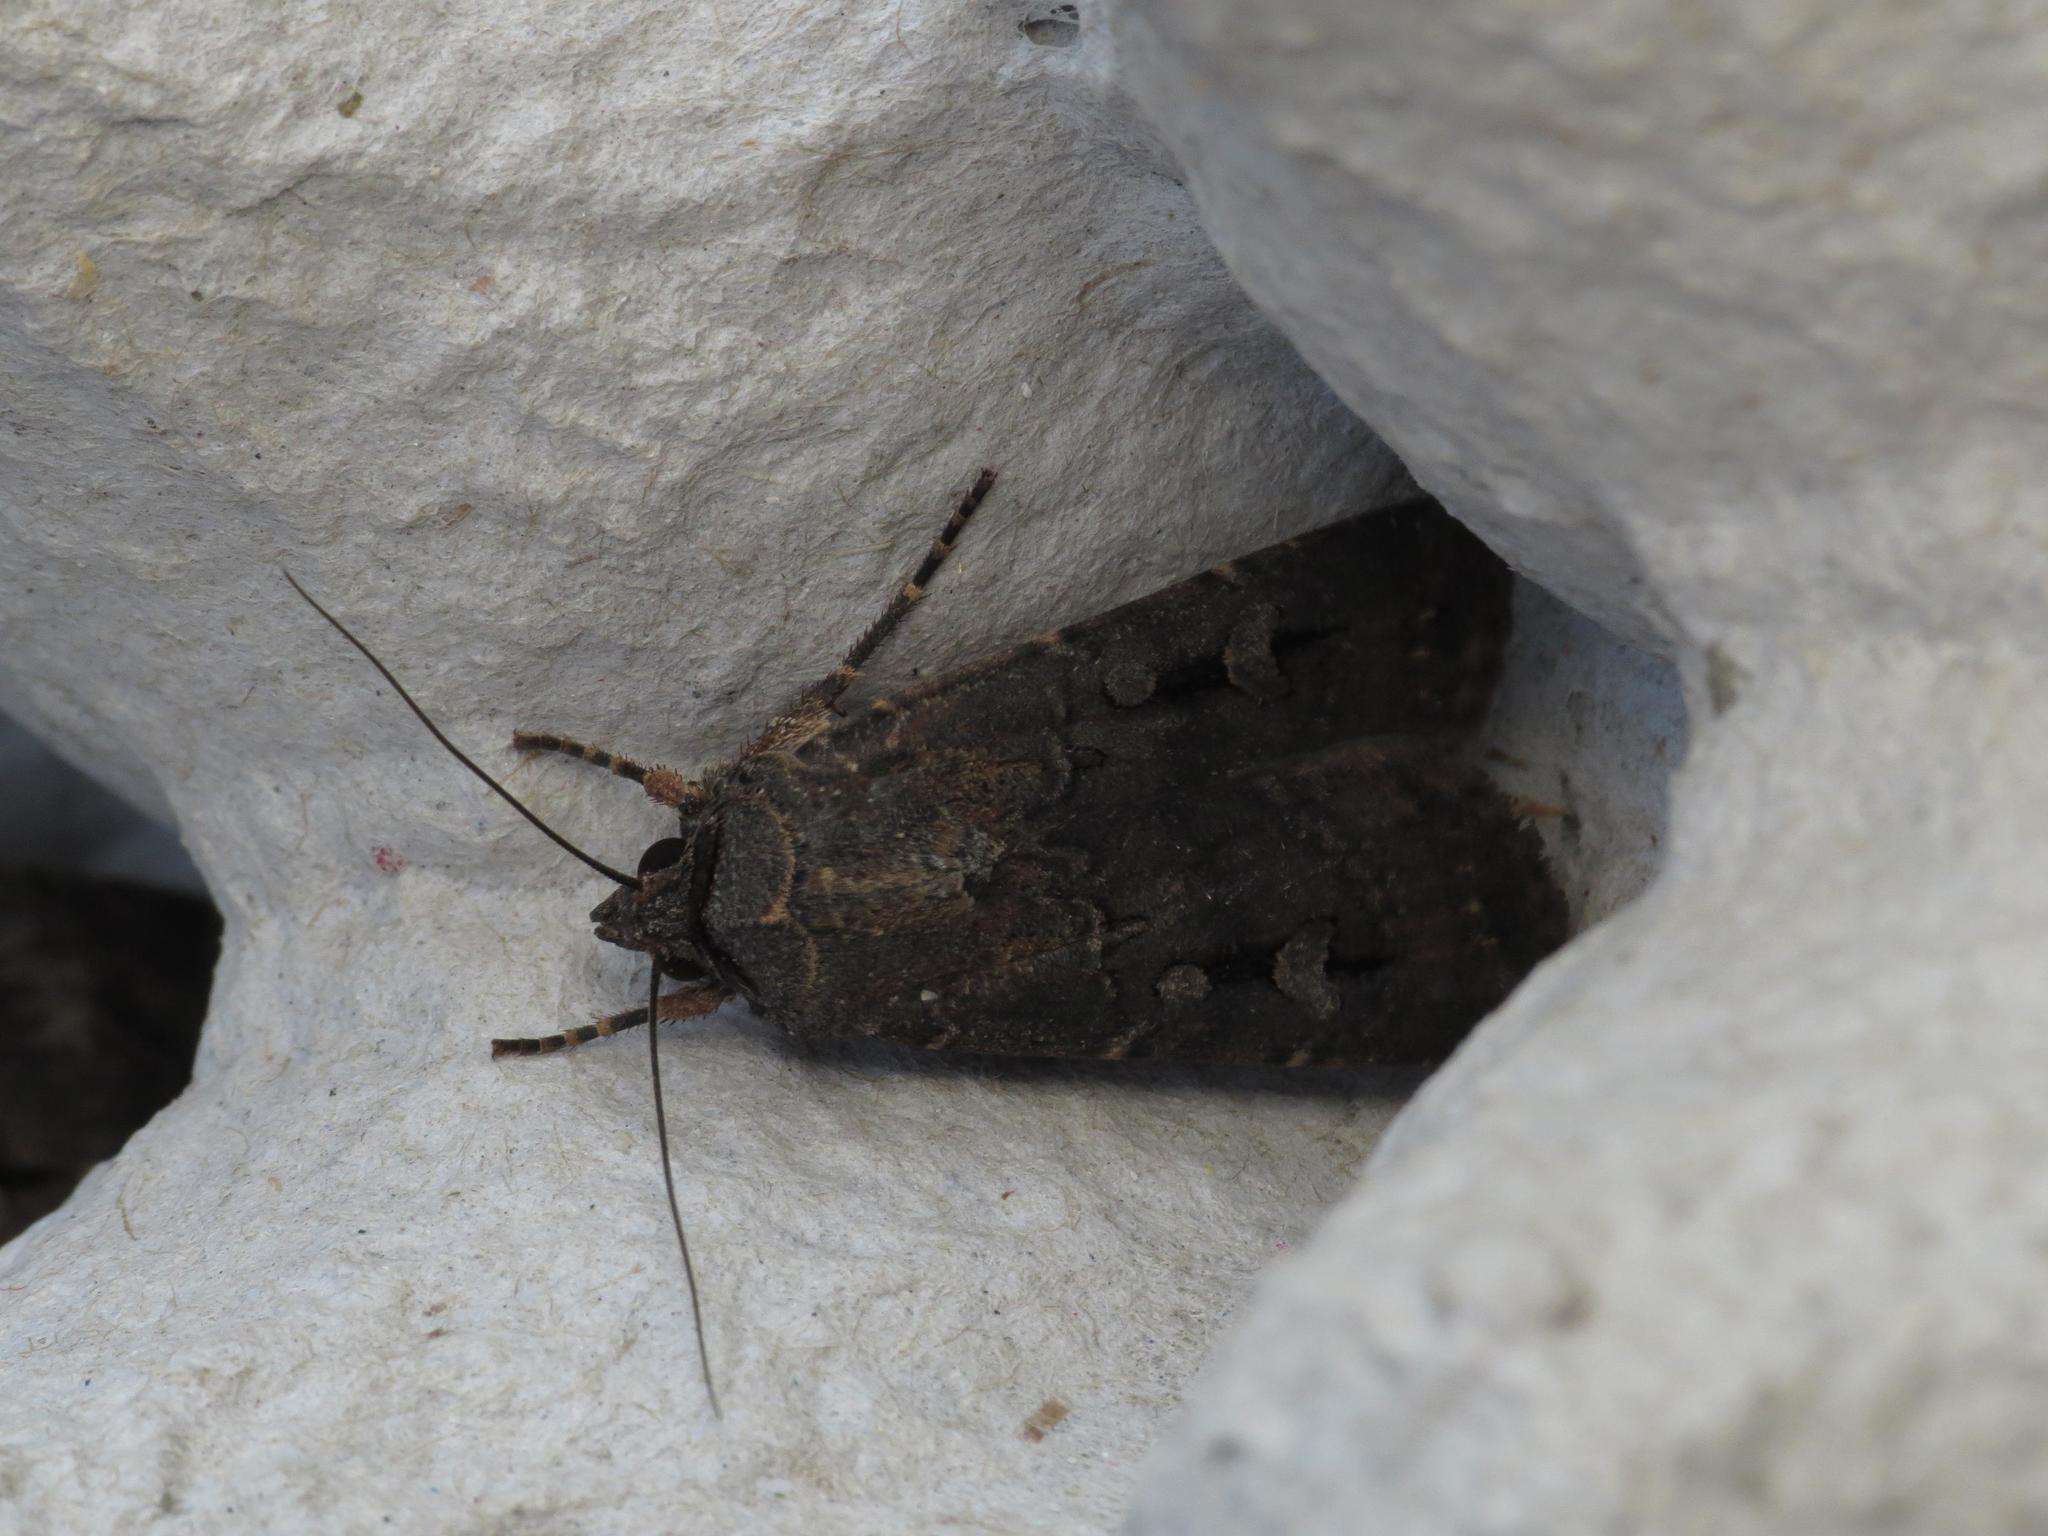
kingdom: Animalia
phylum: Arthropoda
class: Insecta
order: Lepidoptera
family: Noctuidae
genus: Agrotis
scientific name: Agrotis infusa
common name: Bogong moth
